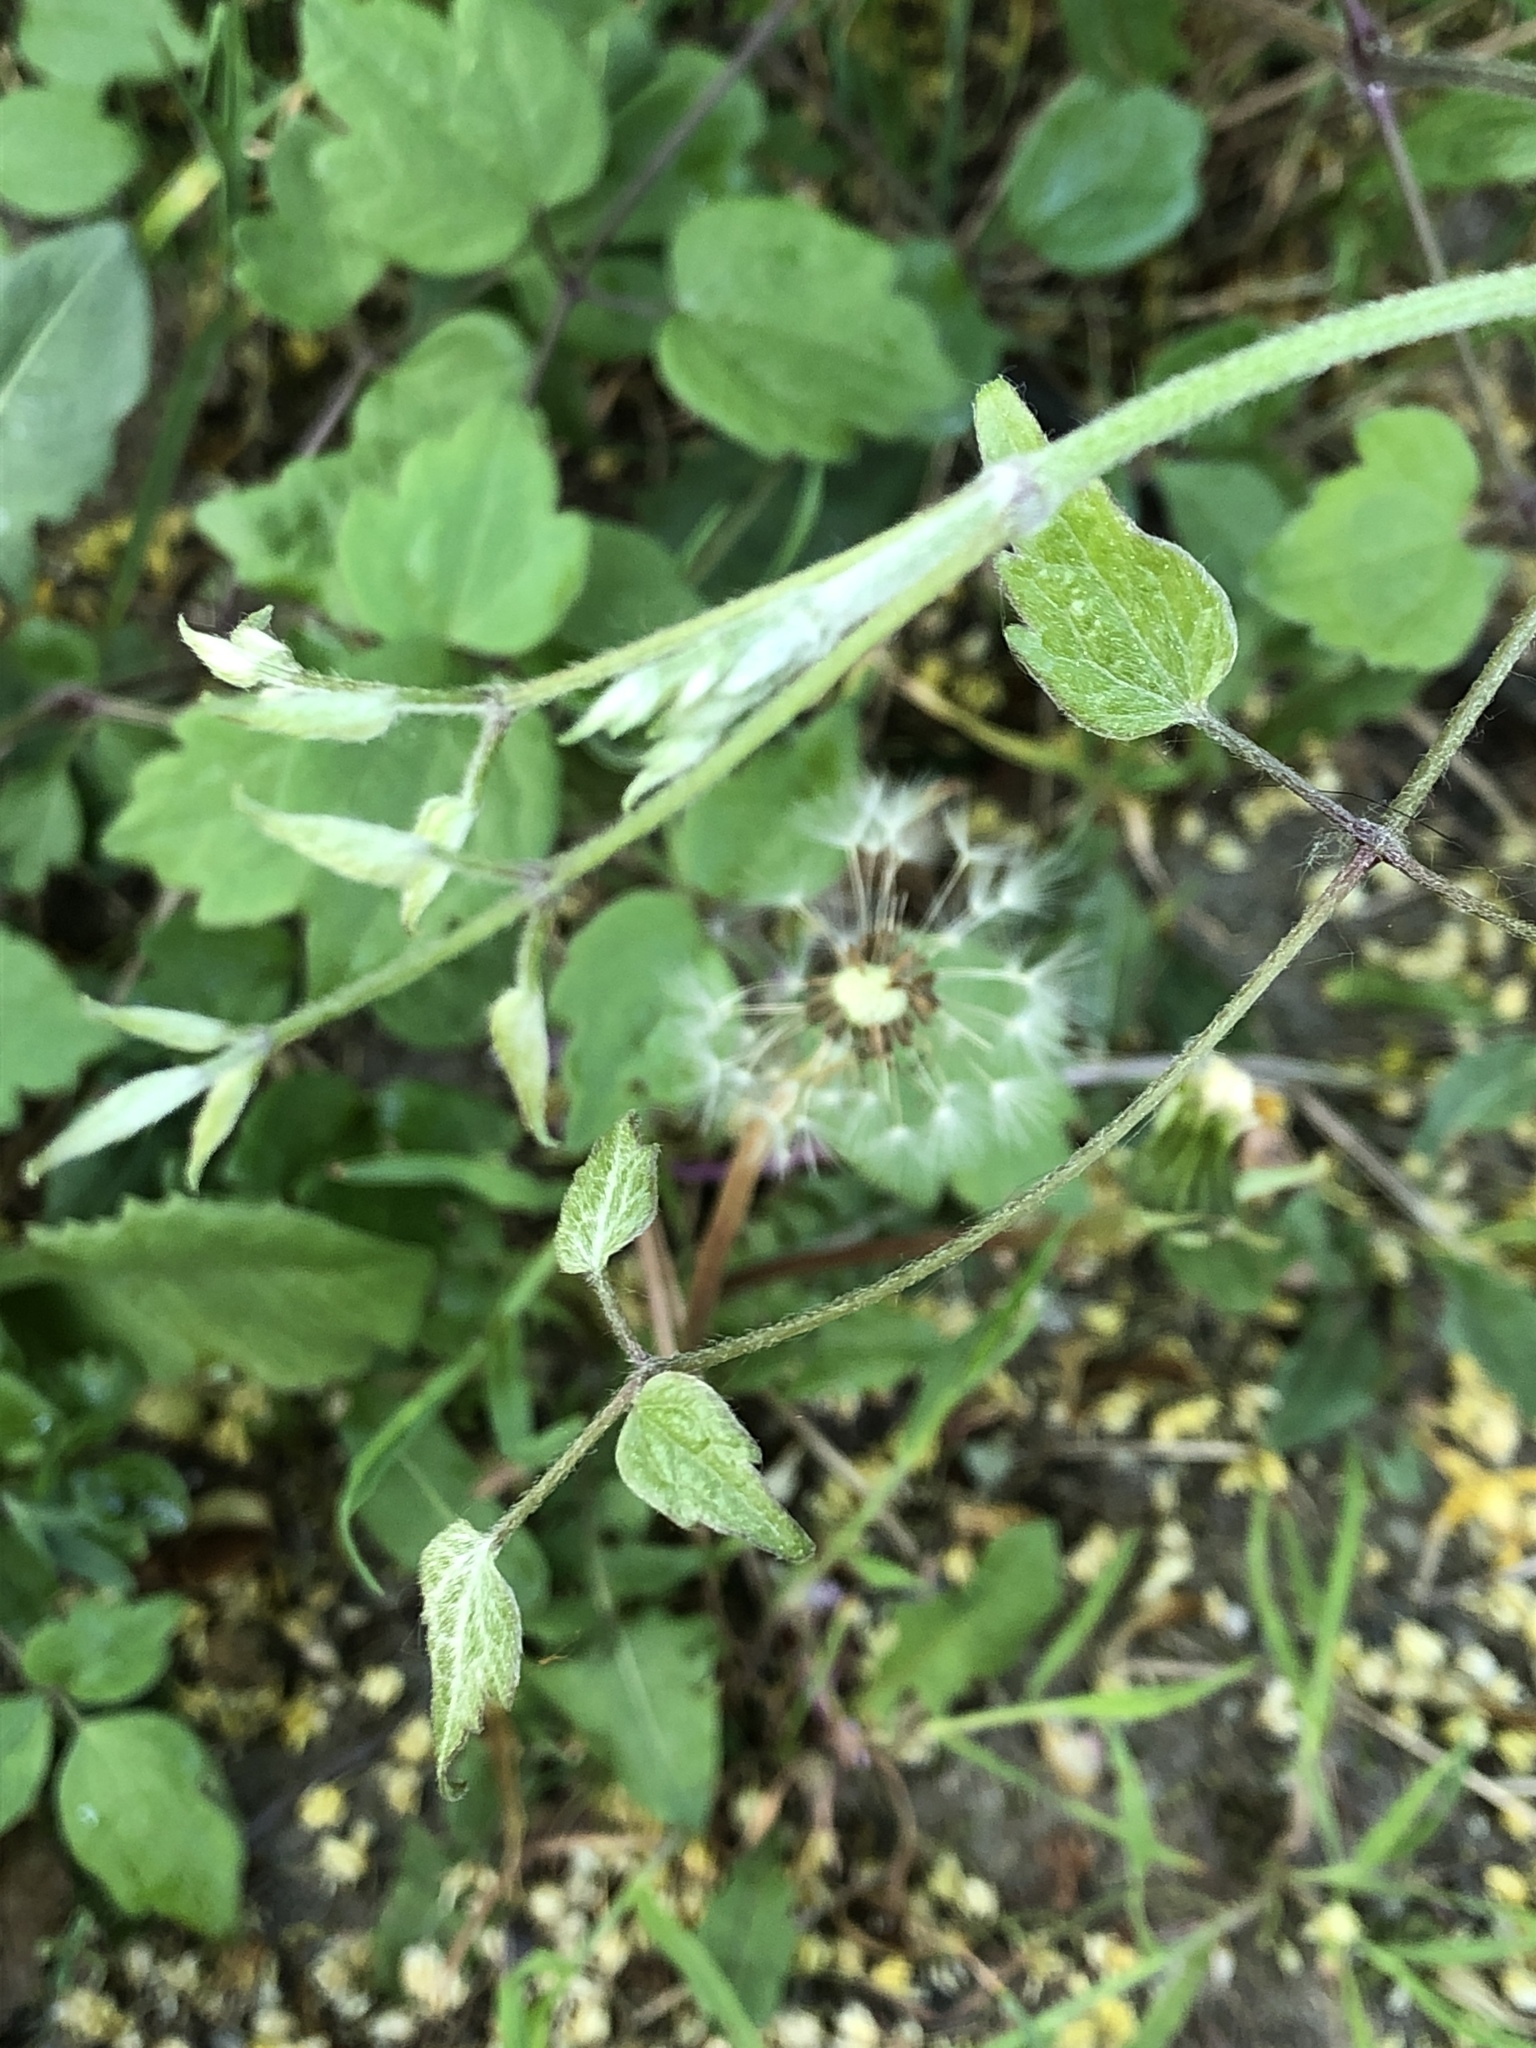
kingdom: Plantae
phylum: Tracheophyta
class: Magnoliopsida
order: Ranunculales
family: Ranunculaceae
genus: Clematis
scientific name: Clematis vitalba
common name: Evergreen clematis
